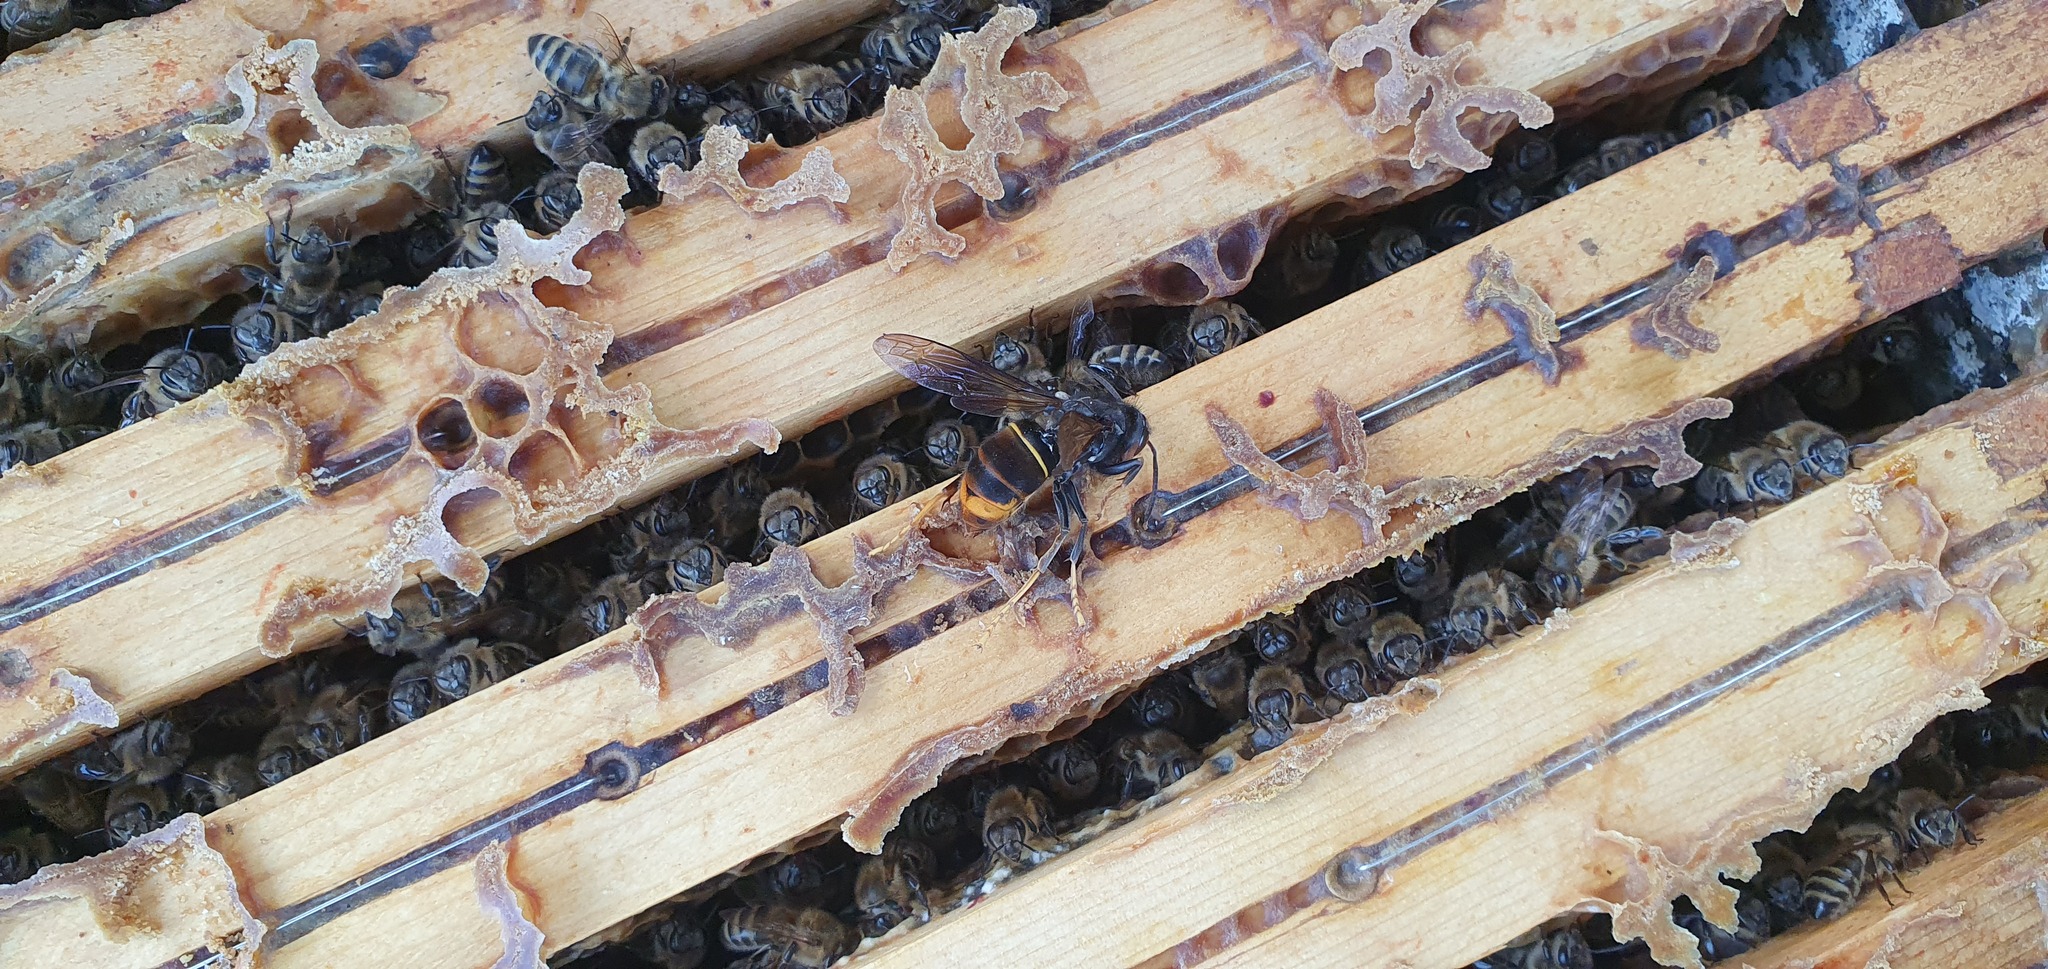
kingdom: Animalia
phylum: Arthropoda
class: Insecta
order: Hymenoptera
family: Vespidae
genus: Vespa
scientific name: Vespa velutina
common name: Asian hornet
